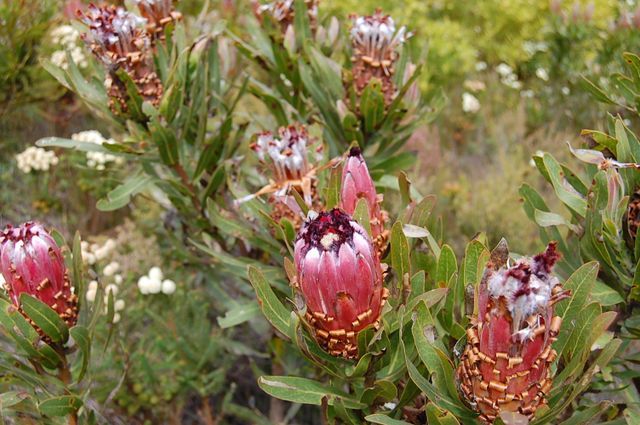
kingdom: Plantae
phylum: Tracheophyta
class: Magnoliopsida
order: Proteales
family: Proteaceae
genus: Protea
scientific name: Protea neriifolia
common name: Blue sugarbush
